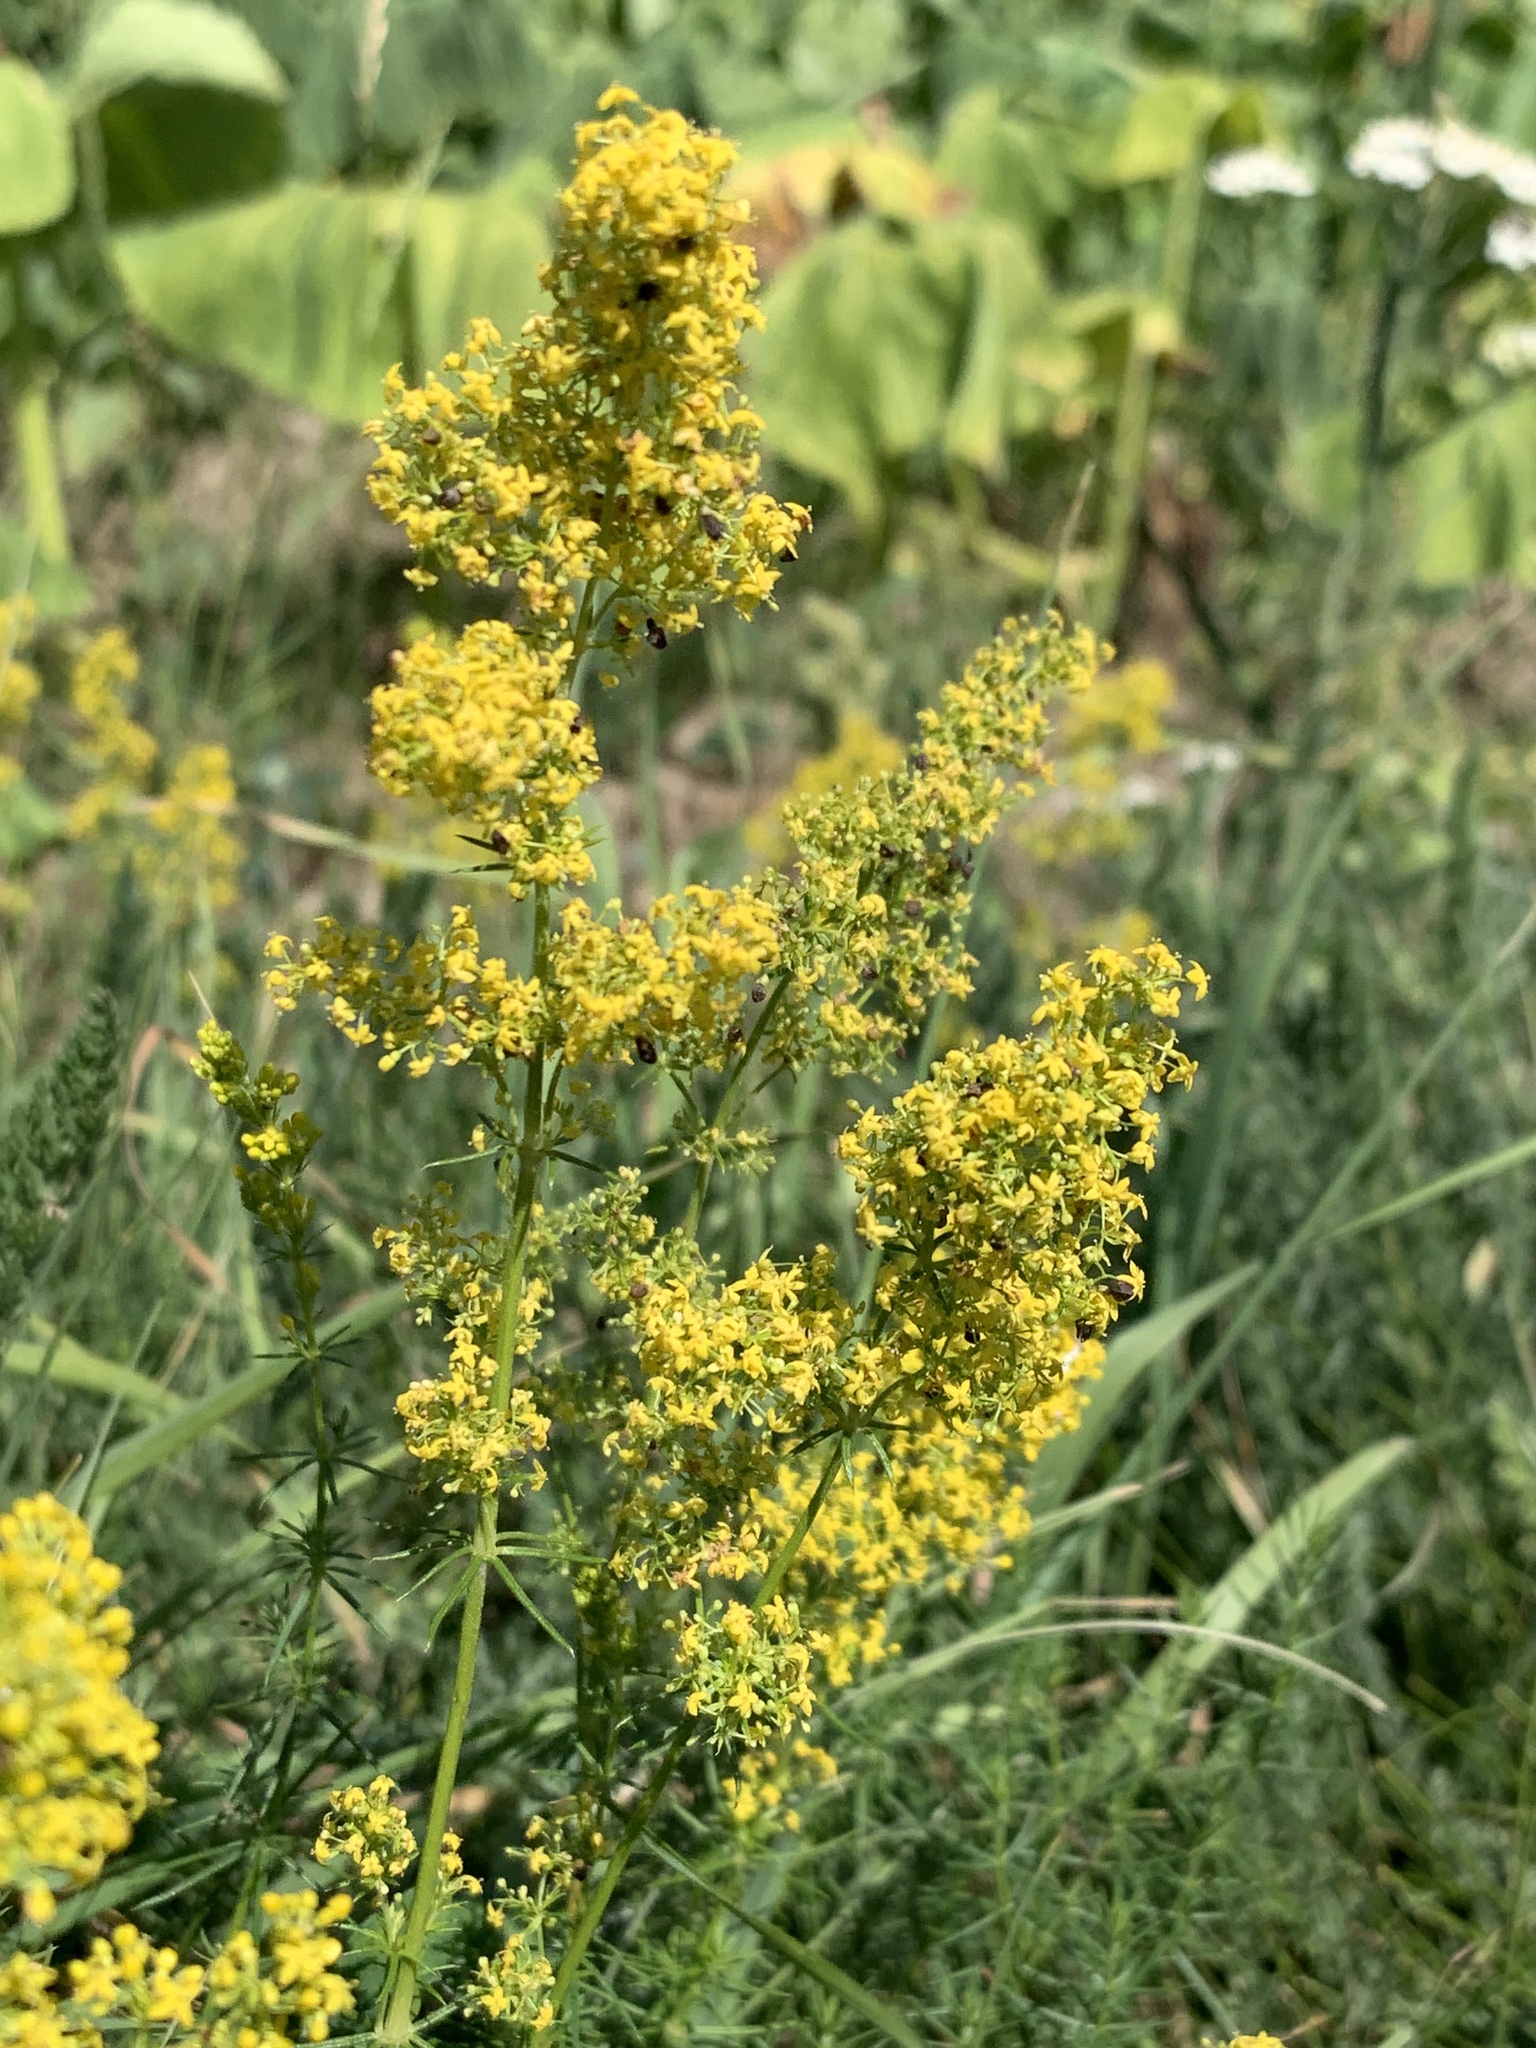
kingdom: Plantae
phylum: Tracheophyta
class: Magnoliopsida
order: Gentianales
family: Rubiaceae
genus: Galium
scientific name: Galium verum
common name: Lady's bedstraw
